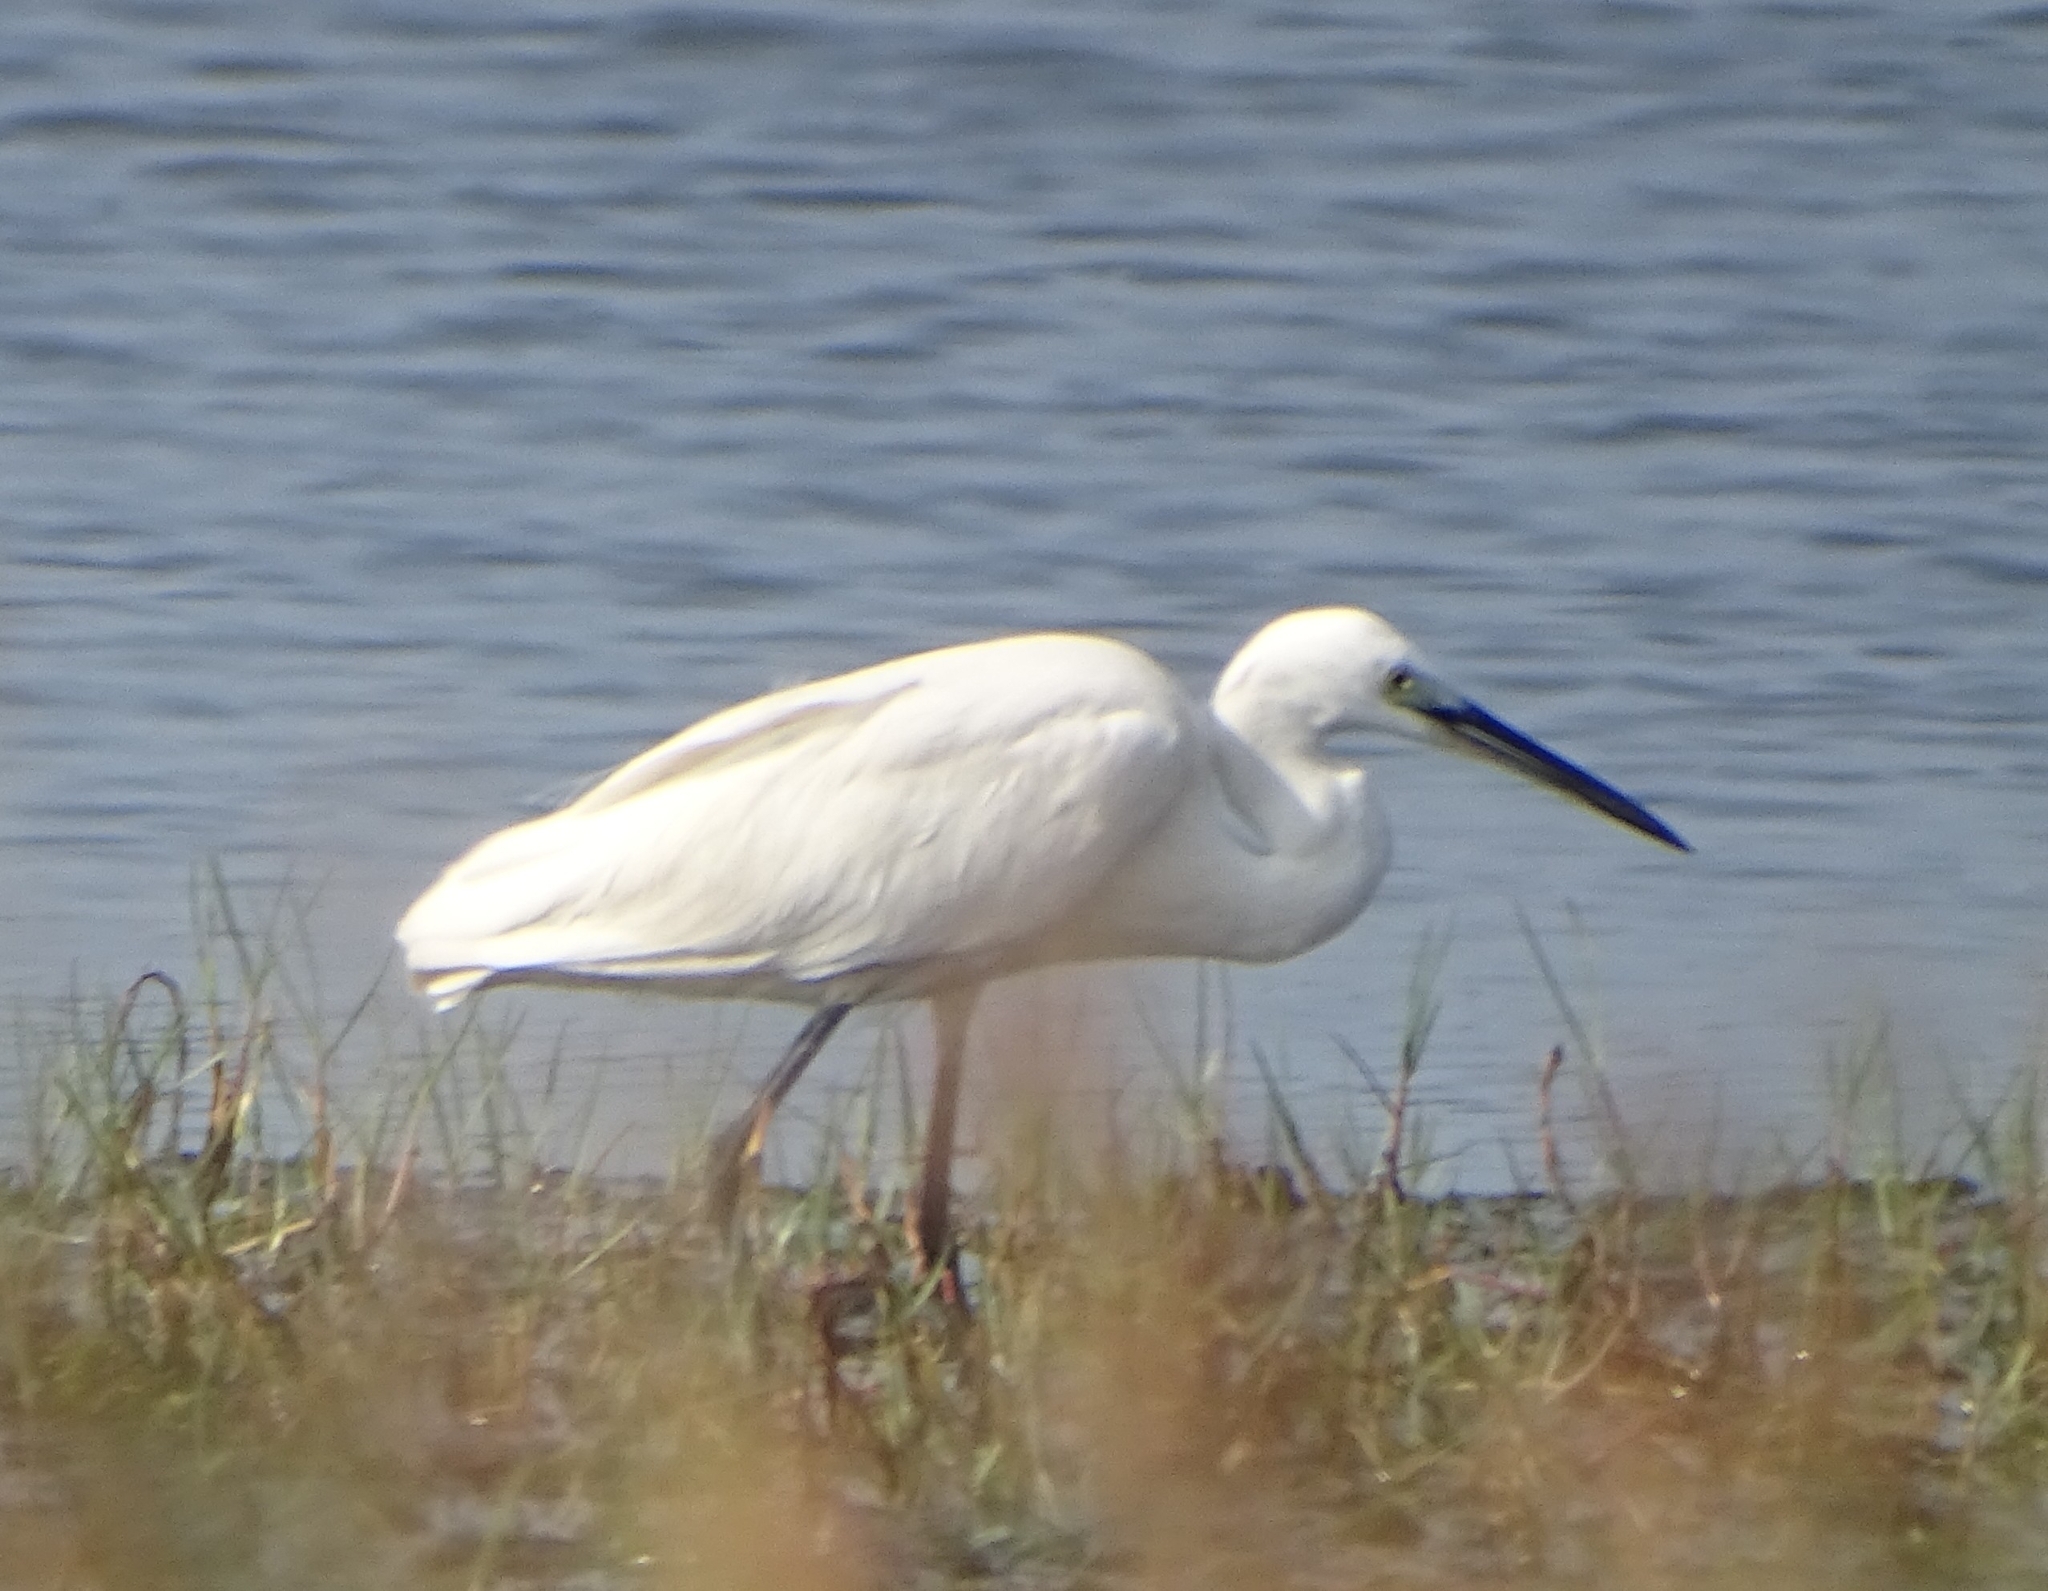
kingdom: Animalia
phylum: Chordata
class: Aves
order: Pelecaniformes
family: Ardeidae
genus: Egretta
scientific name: Egretta garzetta
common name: Little egret
